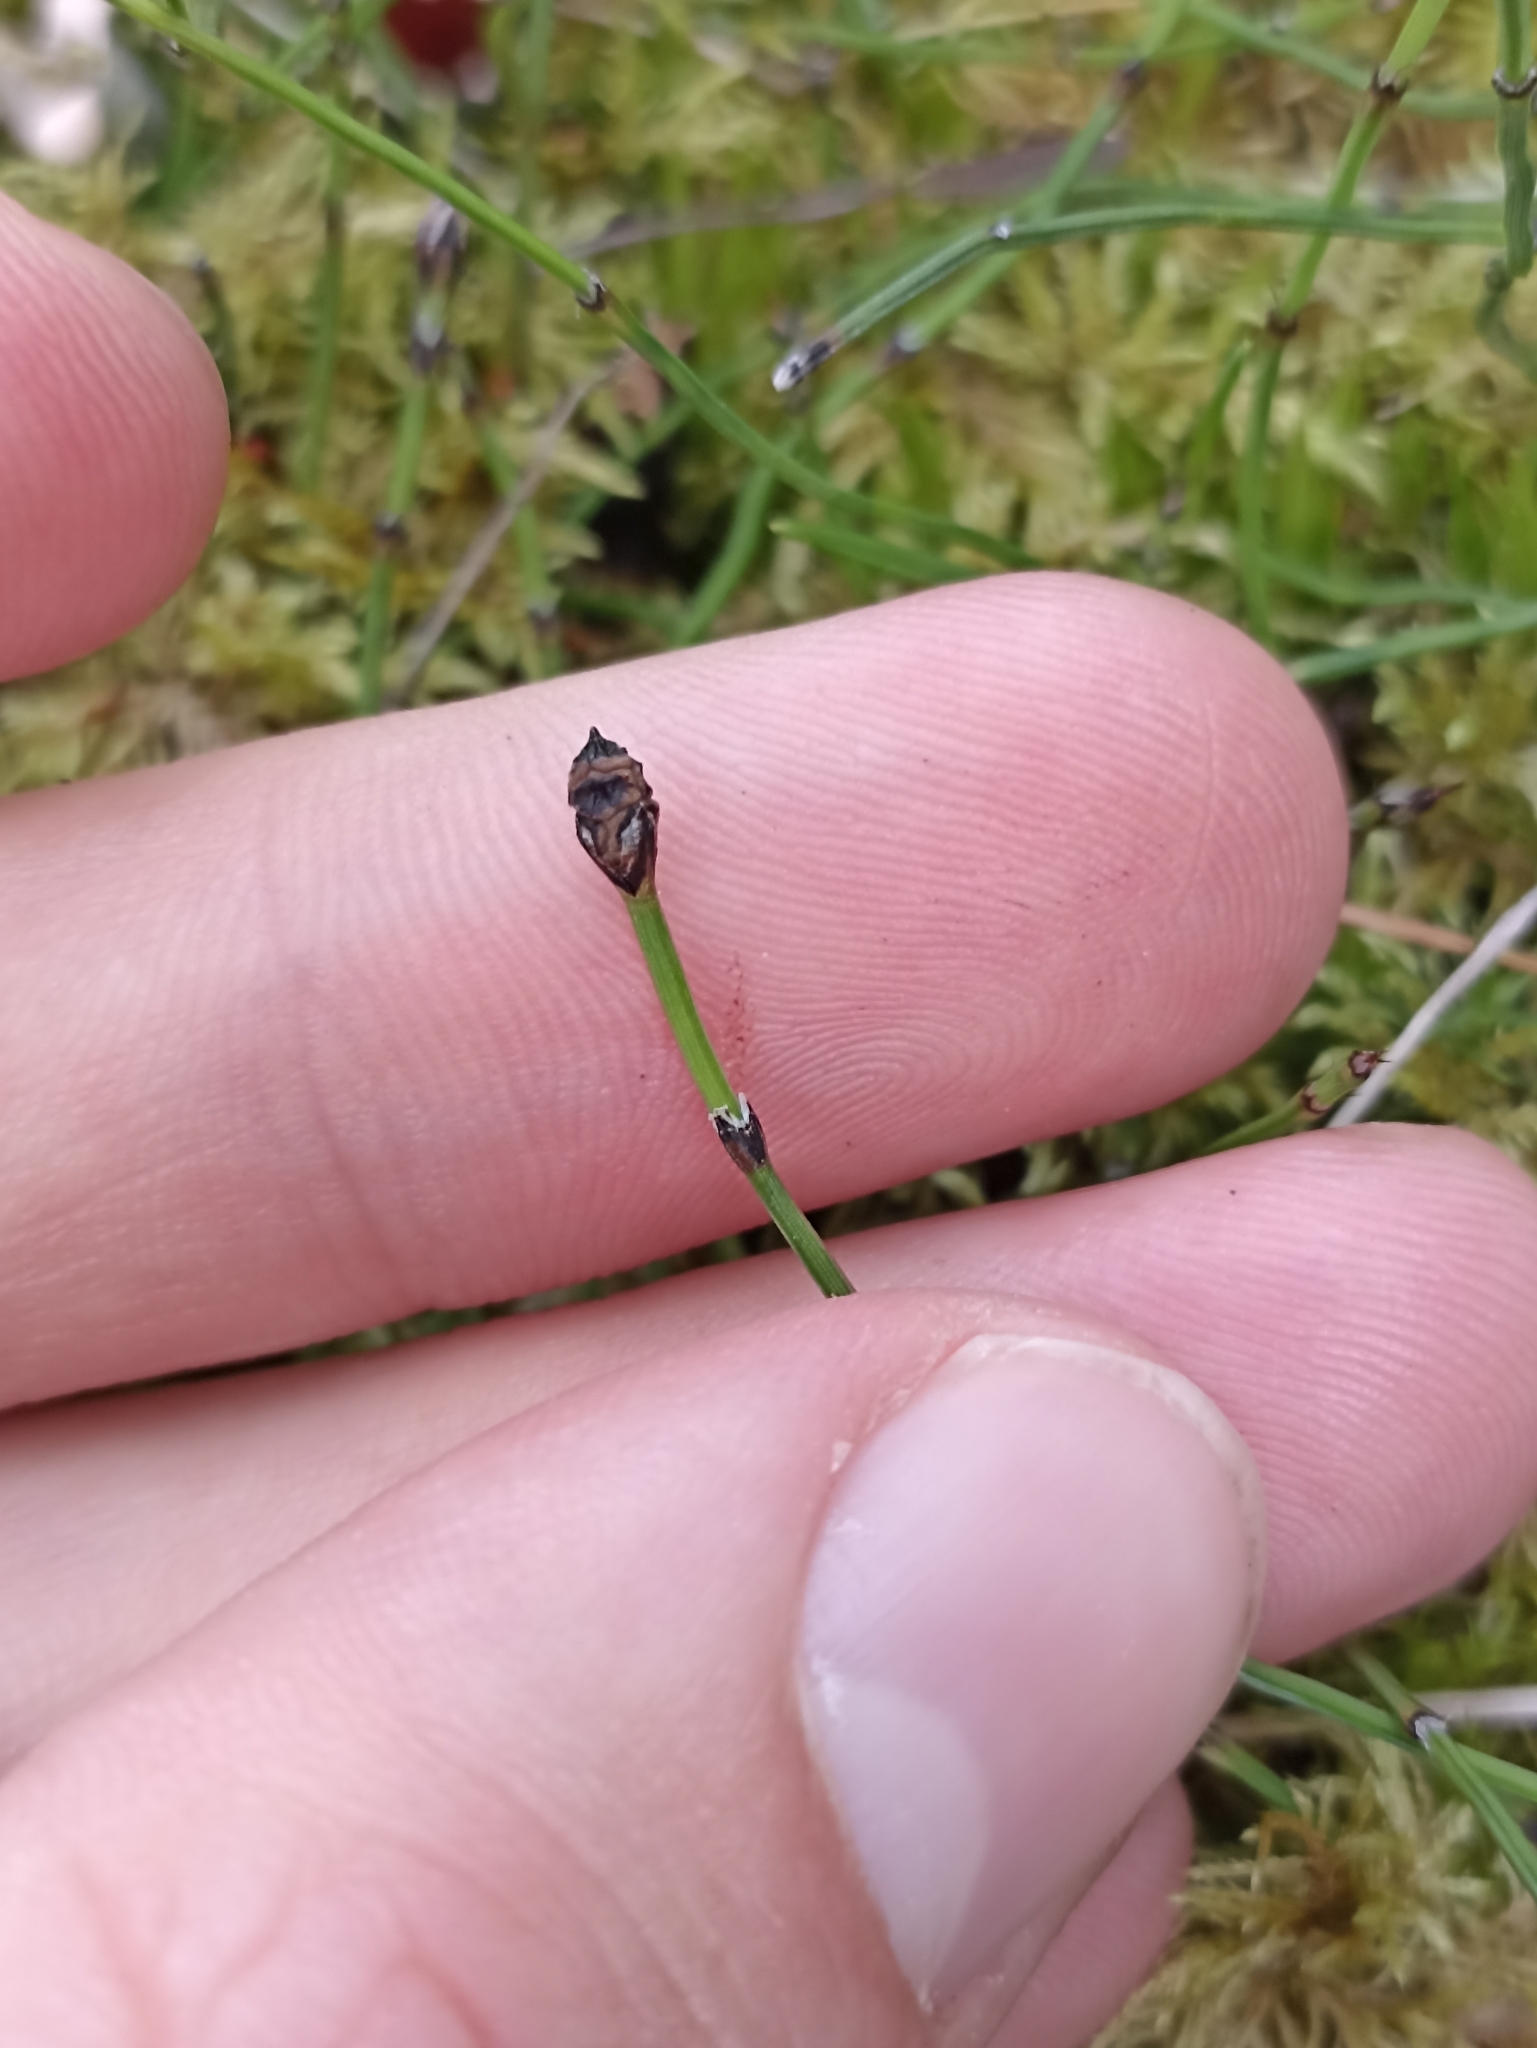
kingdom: Plantae
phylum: Tracheophyta
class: Polypodiopsida
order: Equisetales
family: Equisetaceae
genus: Equisetum
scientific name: Equisetum scirpoides
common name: Delicate horsetail
